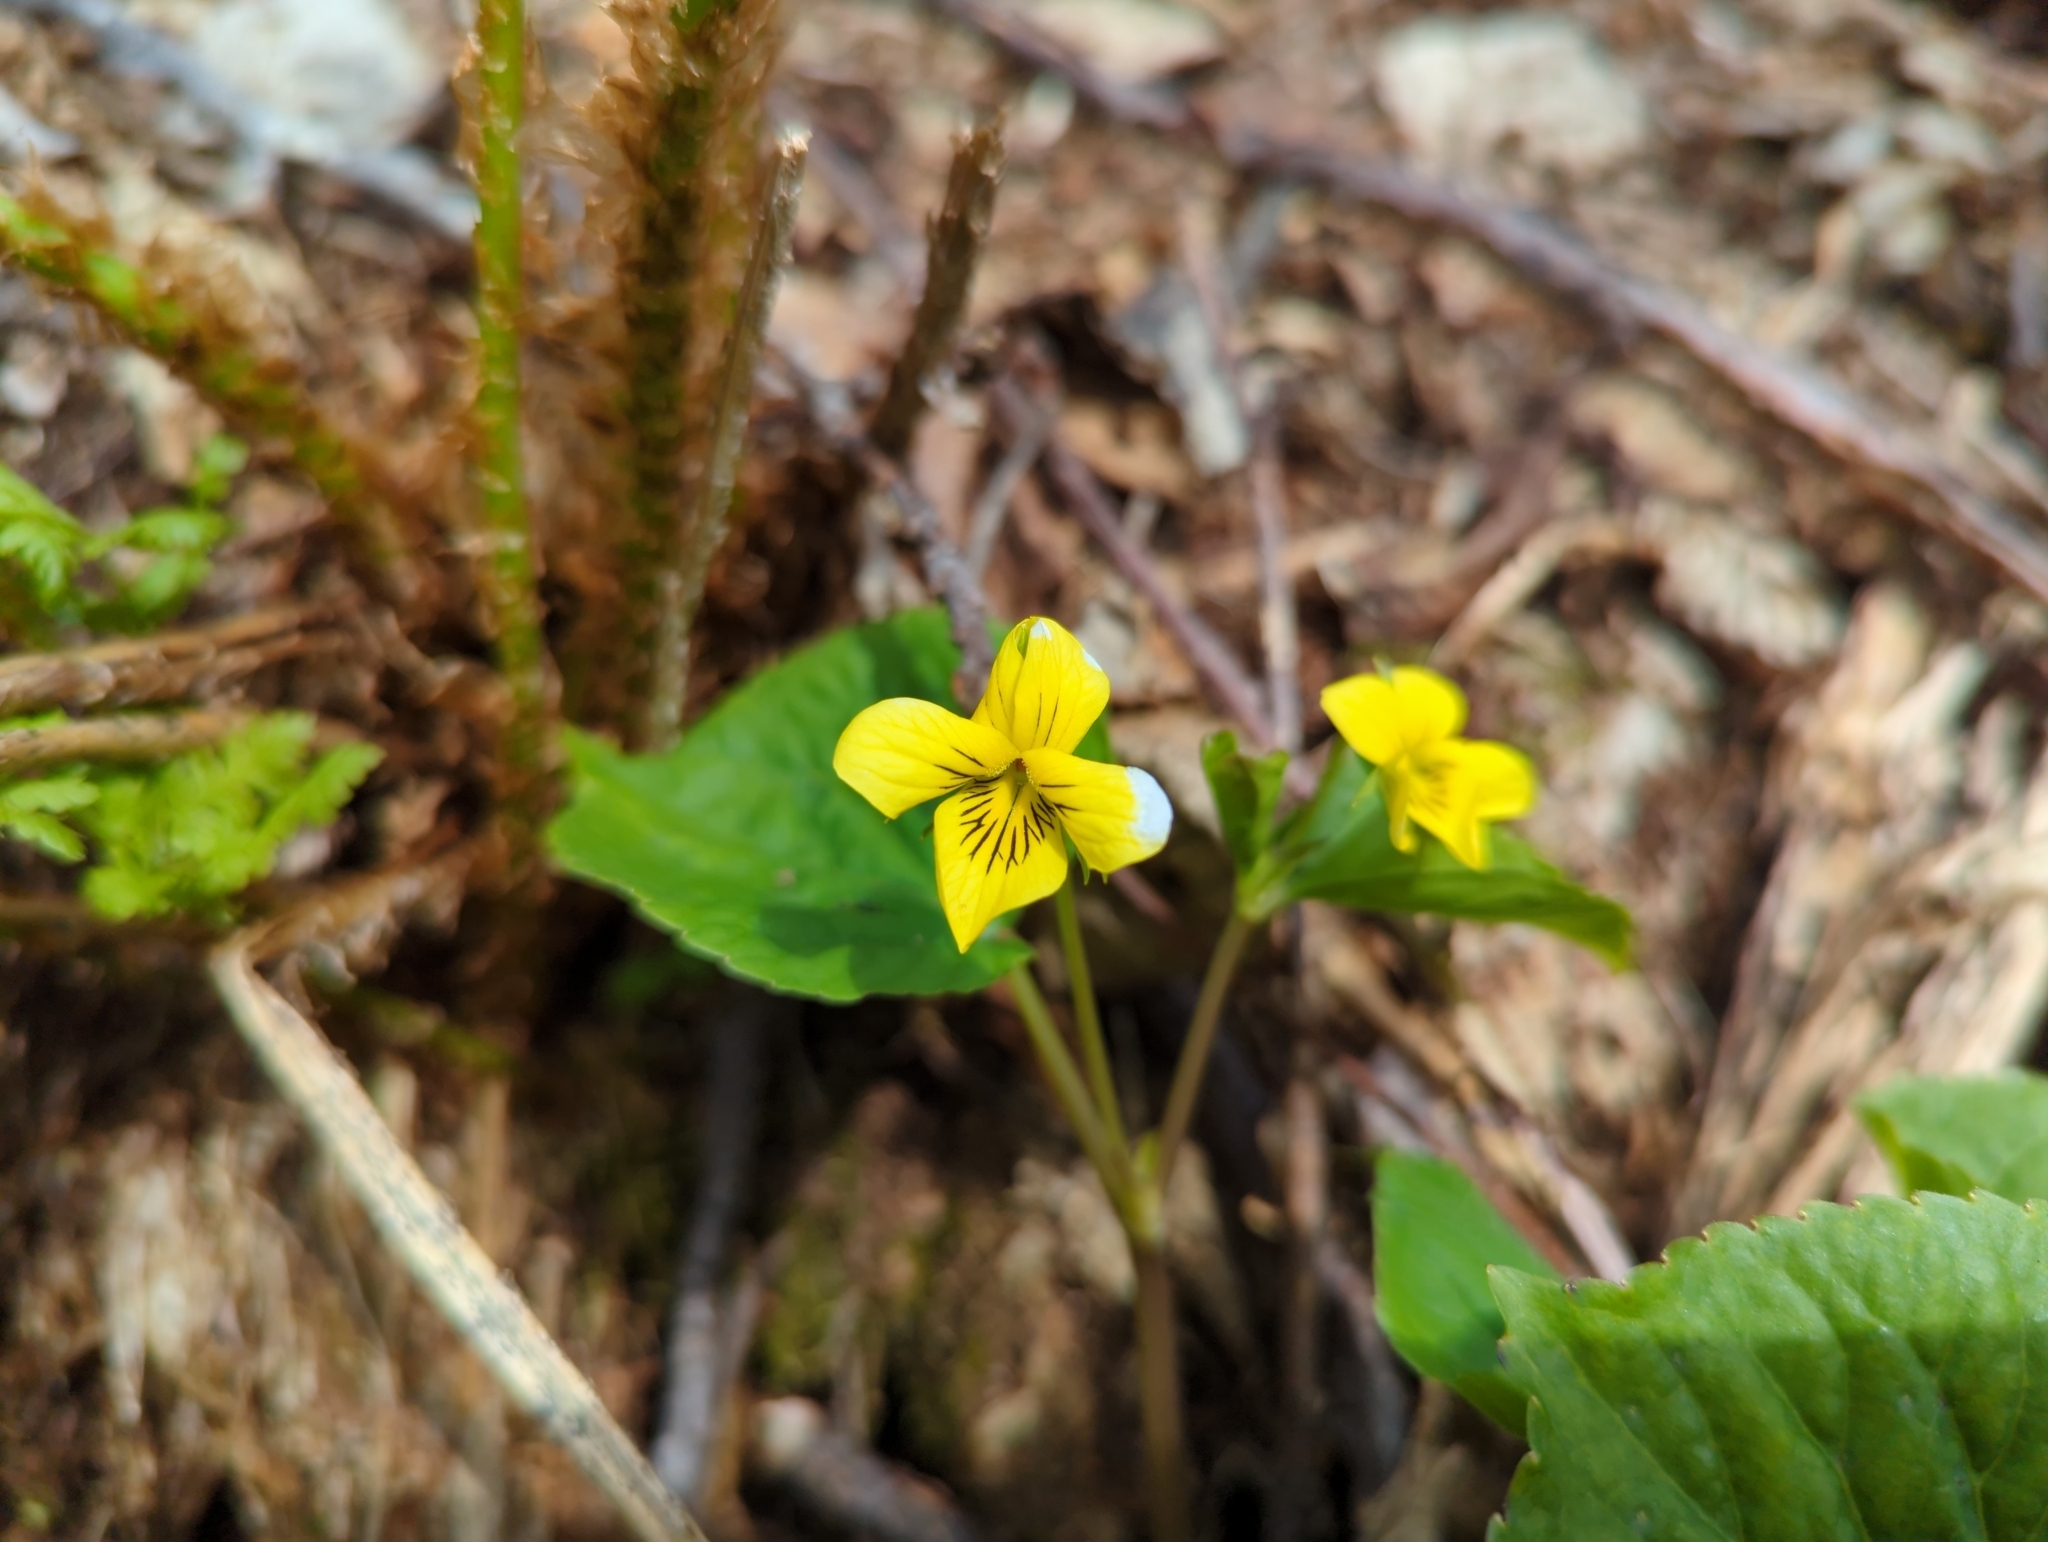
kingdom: Plantae
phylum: Tracheophyta
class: Magnoliopsida
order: Malpighiales
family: Violaceae
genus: Viola
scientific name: Viola glabella
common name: Stream violet
